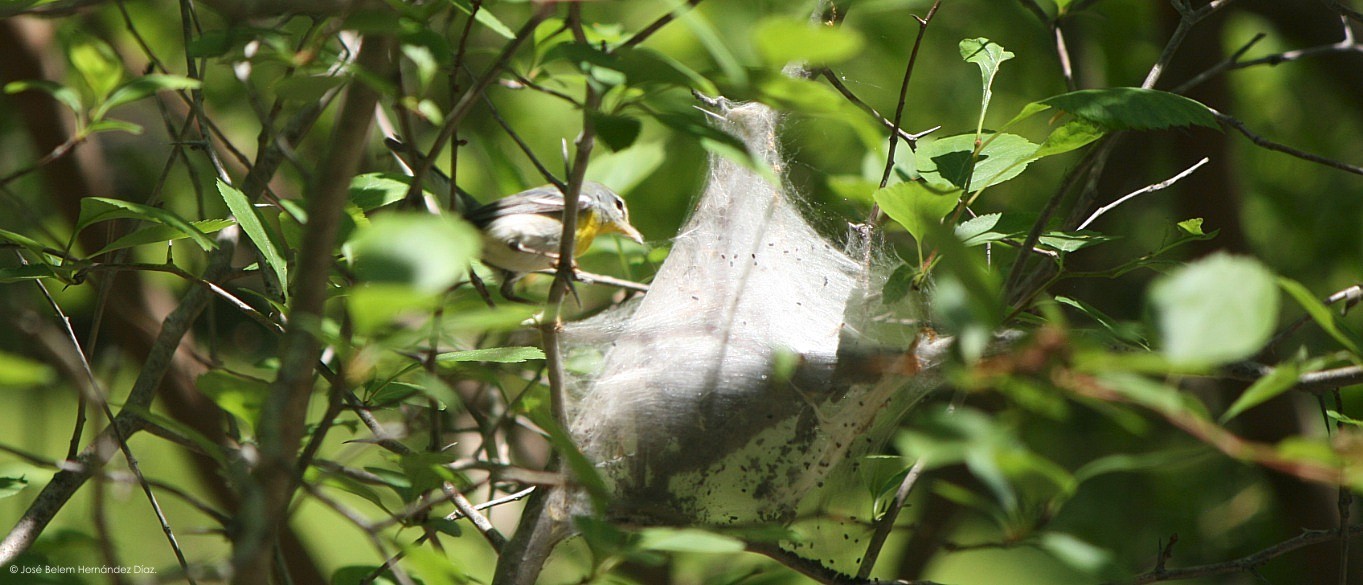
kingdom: Animalia
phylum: Chordata
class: Aves
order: Passeriformes
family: Parulidae
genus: Setophaga
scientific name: Setophaga americana
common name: Northern parula
